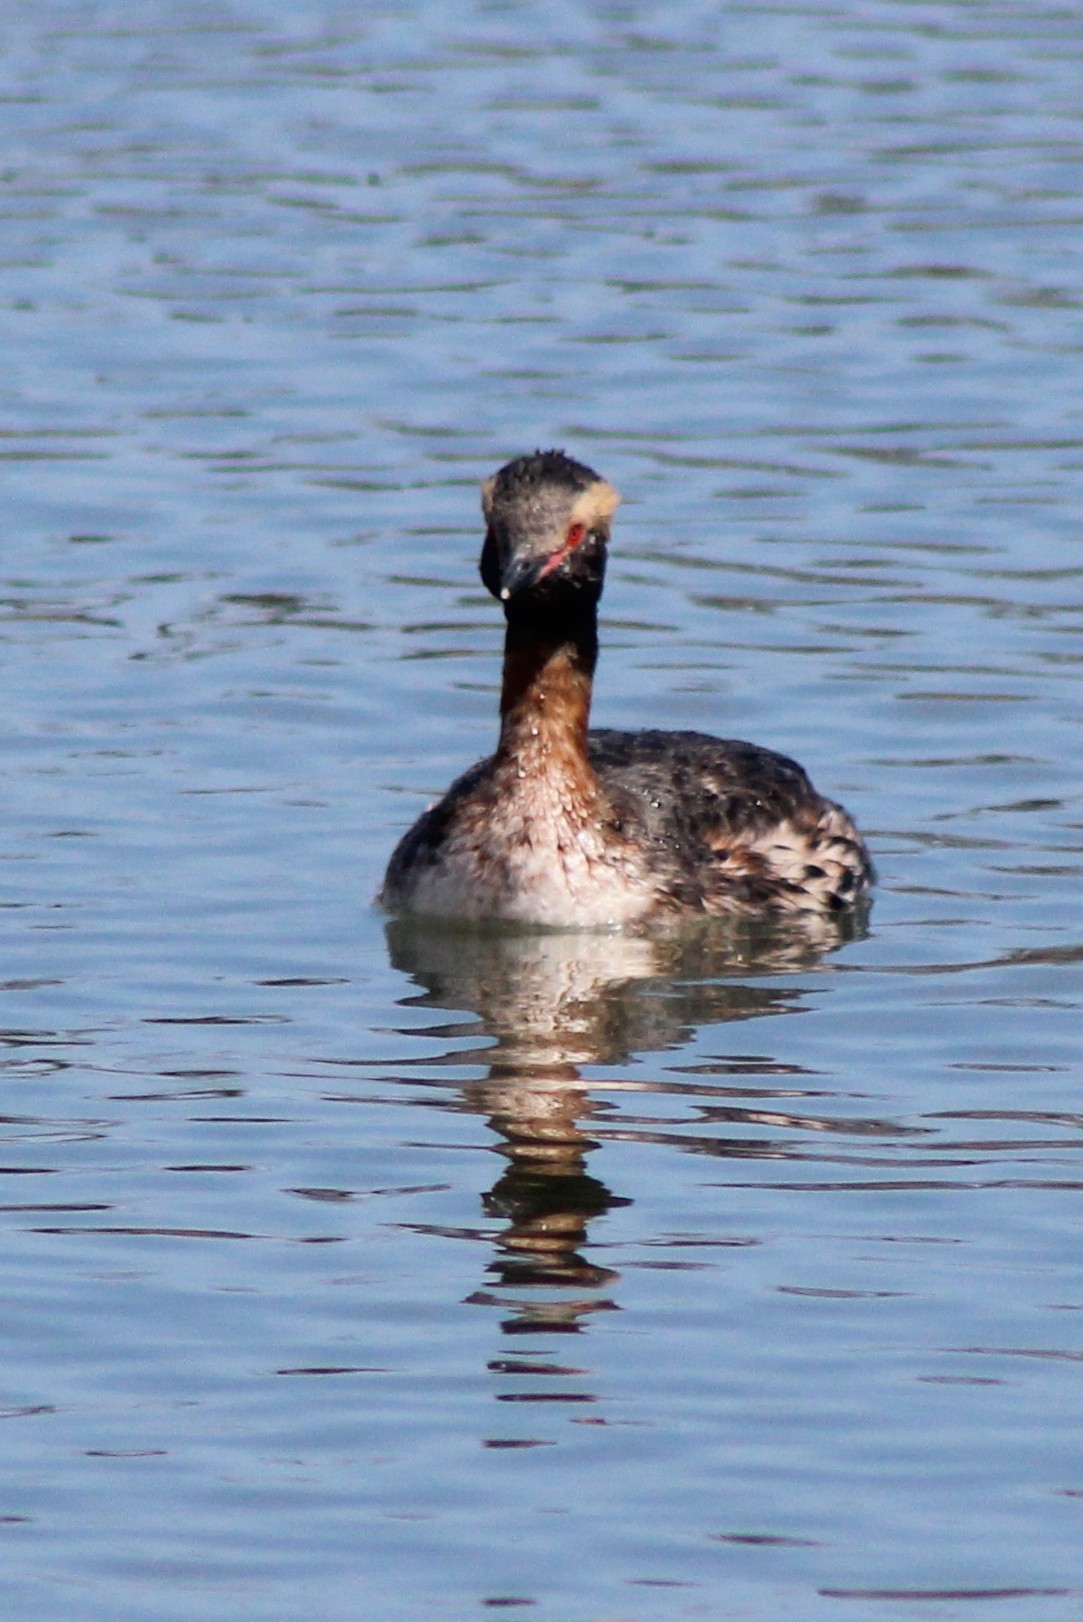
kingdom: Animalia
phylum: Chordata
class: Aves
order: Podicipediformes
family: Podicipedidae
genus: Podiceps
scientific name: Podiceps auritus
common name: Horned grebe
